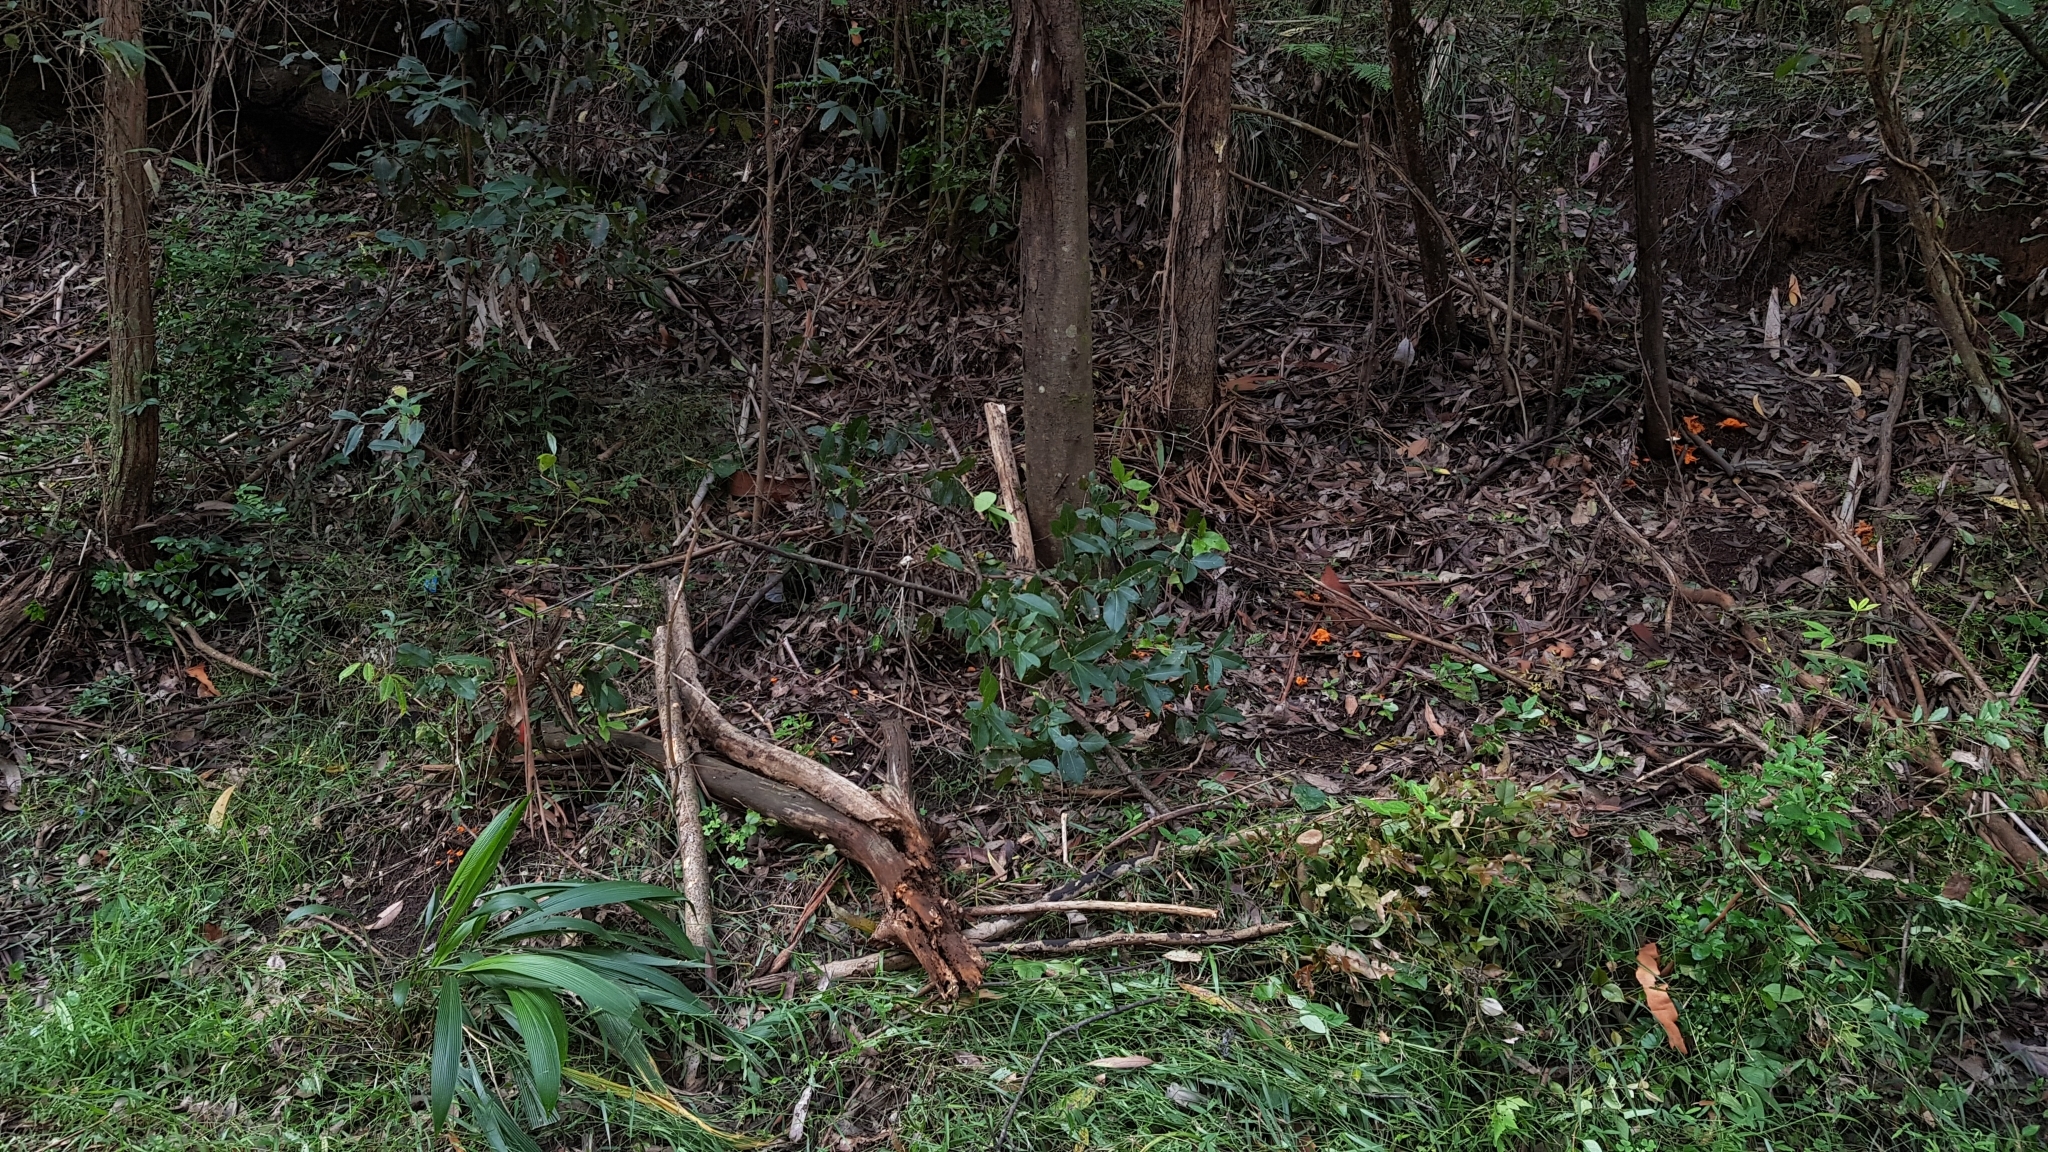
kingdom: Fungi
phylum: Basidiomycota
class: Agaricomycetes
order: Cantharellales
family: Hydnaceae
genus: Cantharellus
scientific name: Cantharellus
